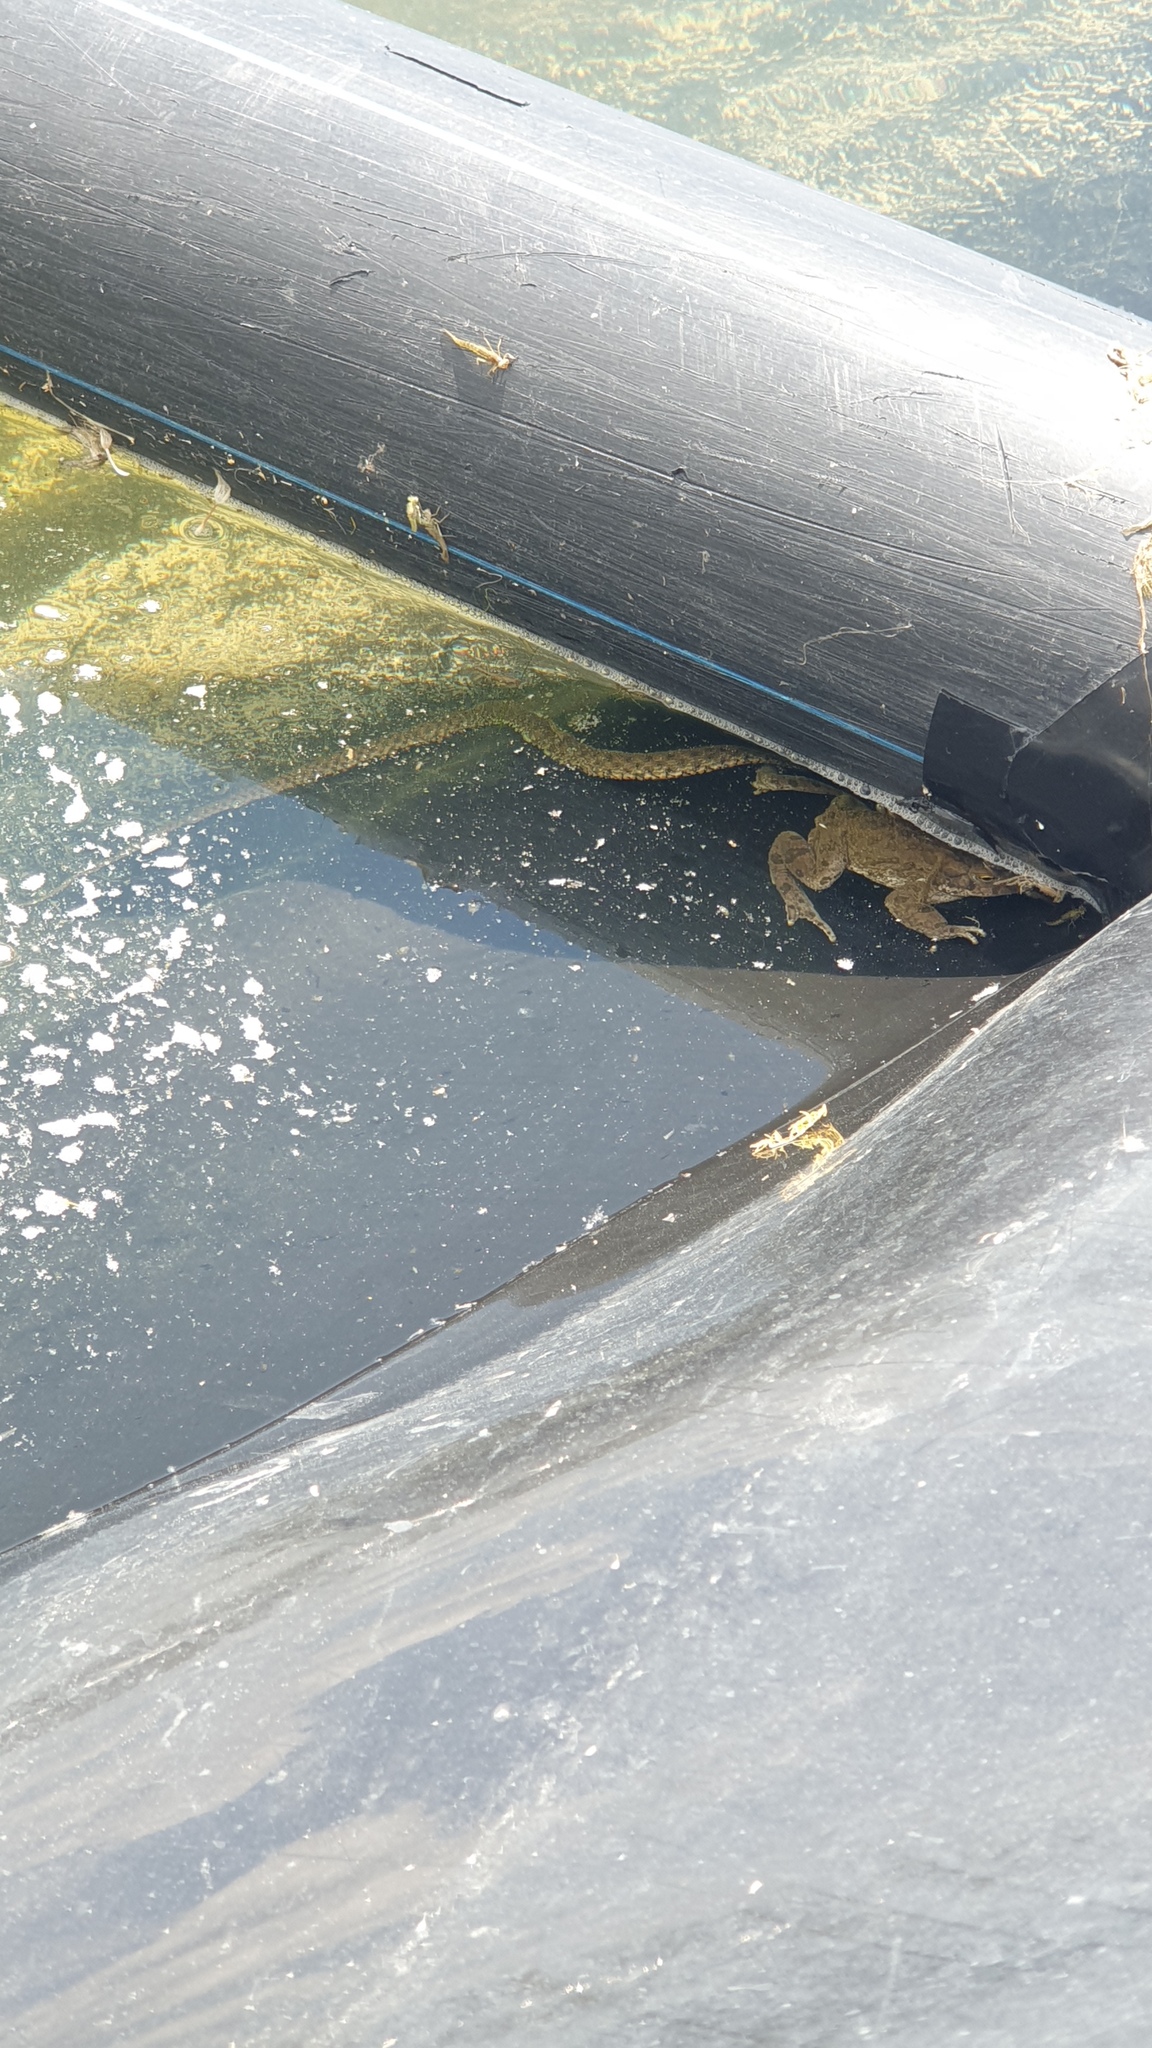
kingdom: Animalia
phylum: Chordata
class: Squamata
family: Colubridae
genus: Natrix
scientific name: Natrix tessellata
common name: Dice snake
